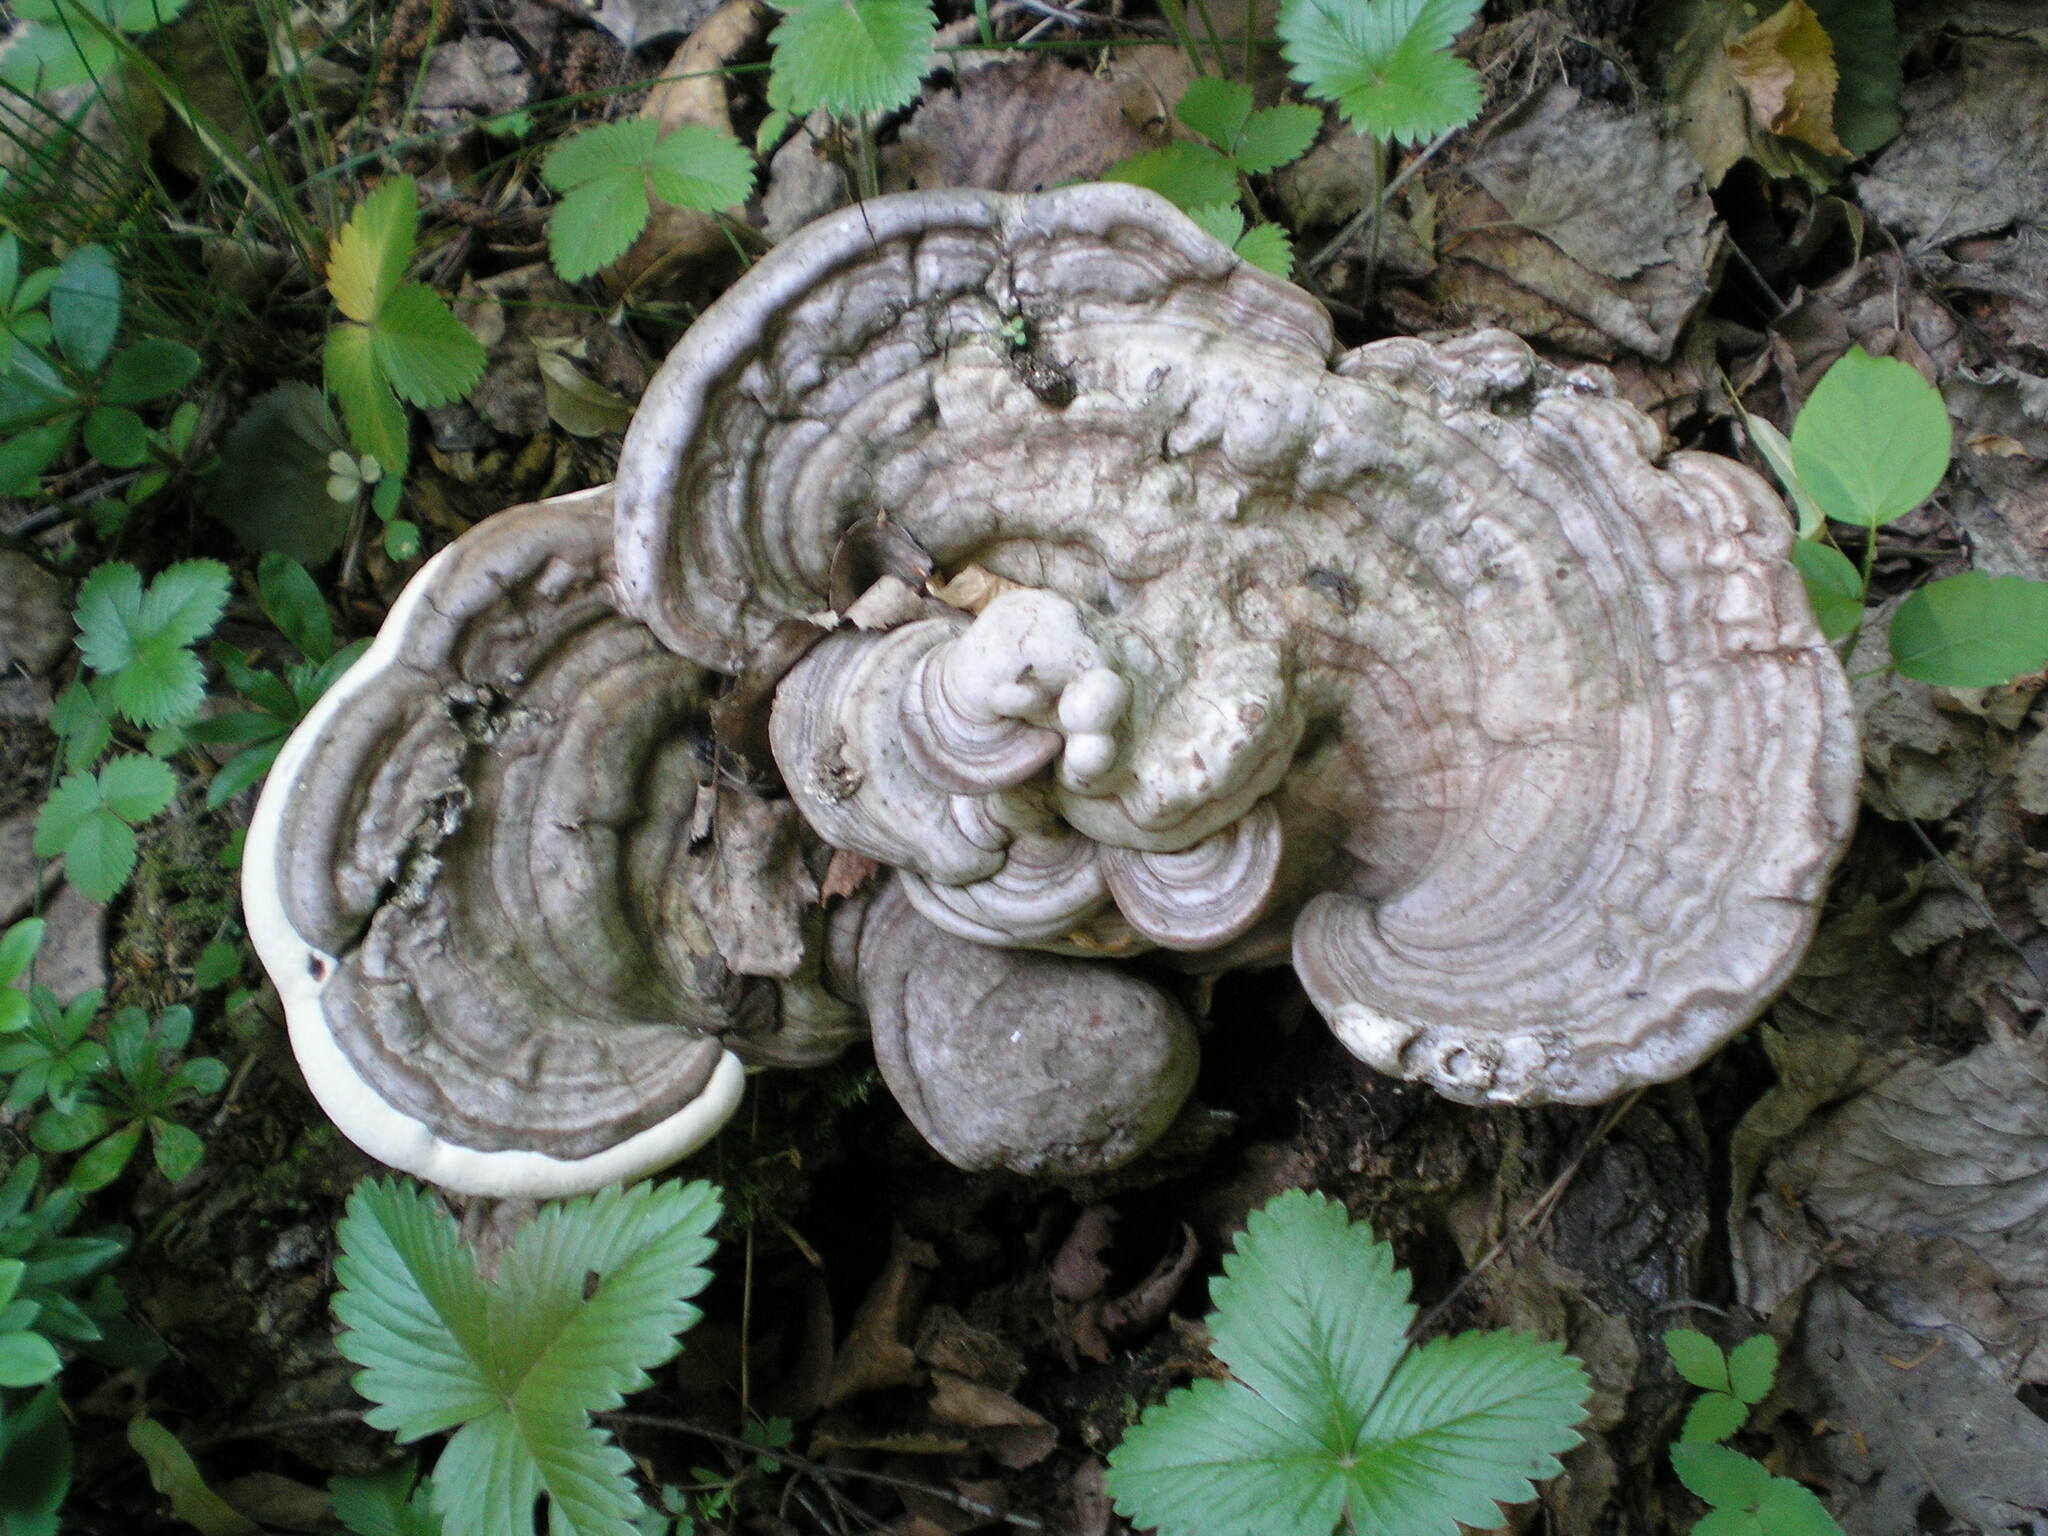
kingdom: Fungi
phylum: Basidiomycota
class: Agaricomycetes
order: Polyporales
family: Polyporaceae
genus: Ganoderma
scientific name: Ganoderma applanatum
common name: Artist's bracket
